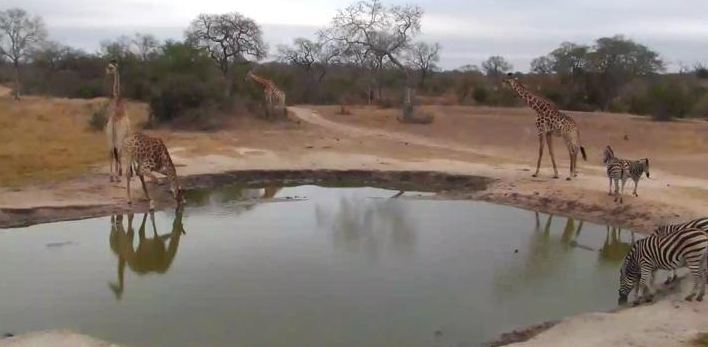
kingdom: Animalia
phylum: Chordata
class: Mammalia
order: Perissodactyla
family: Equidae
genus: Equus
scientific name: Equus quagga
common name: Plains zebra
